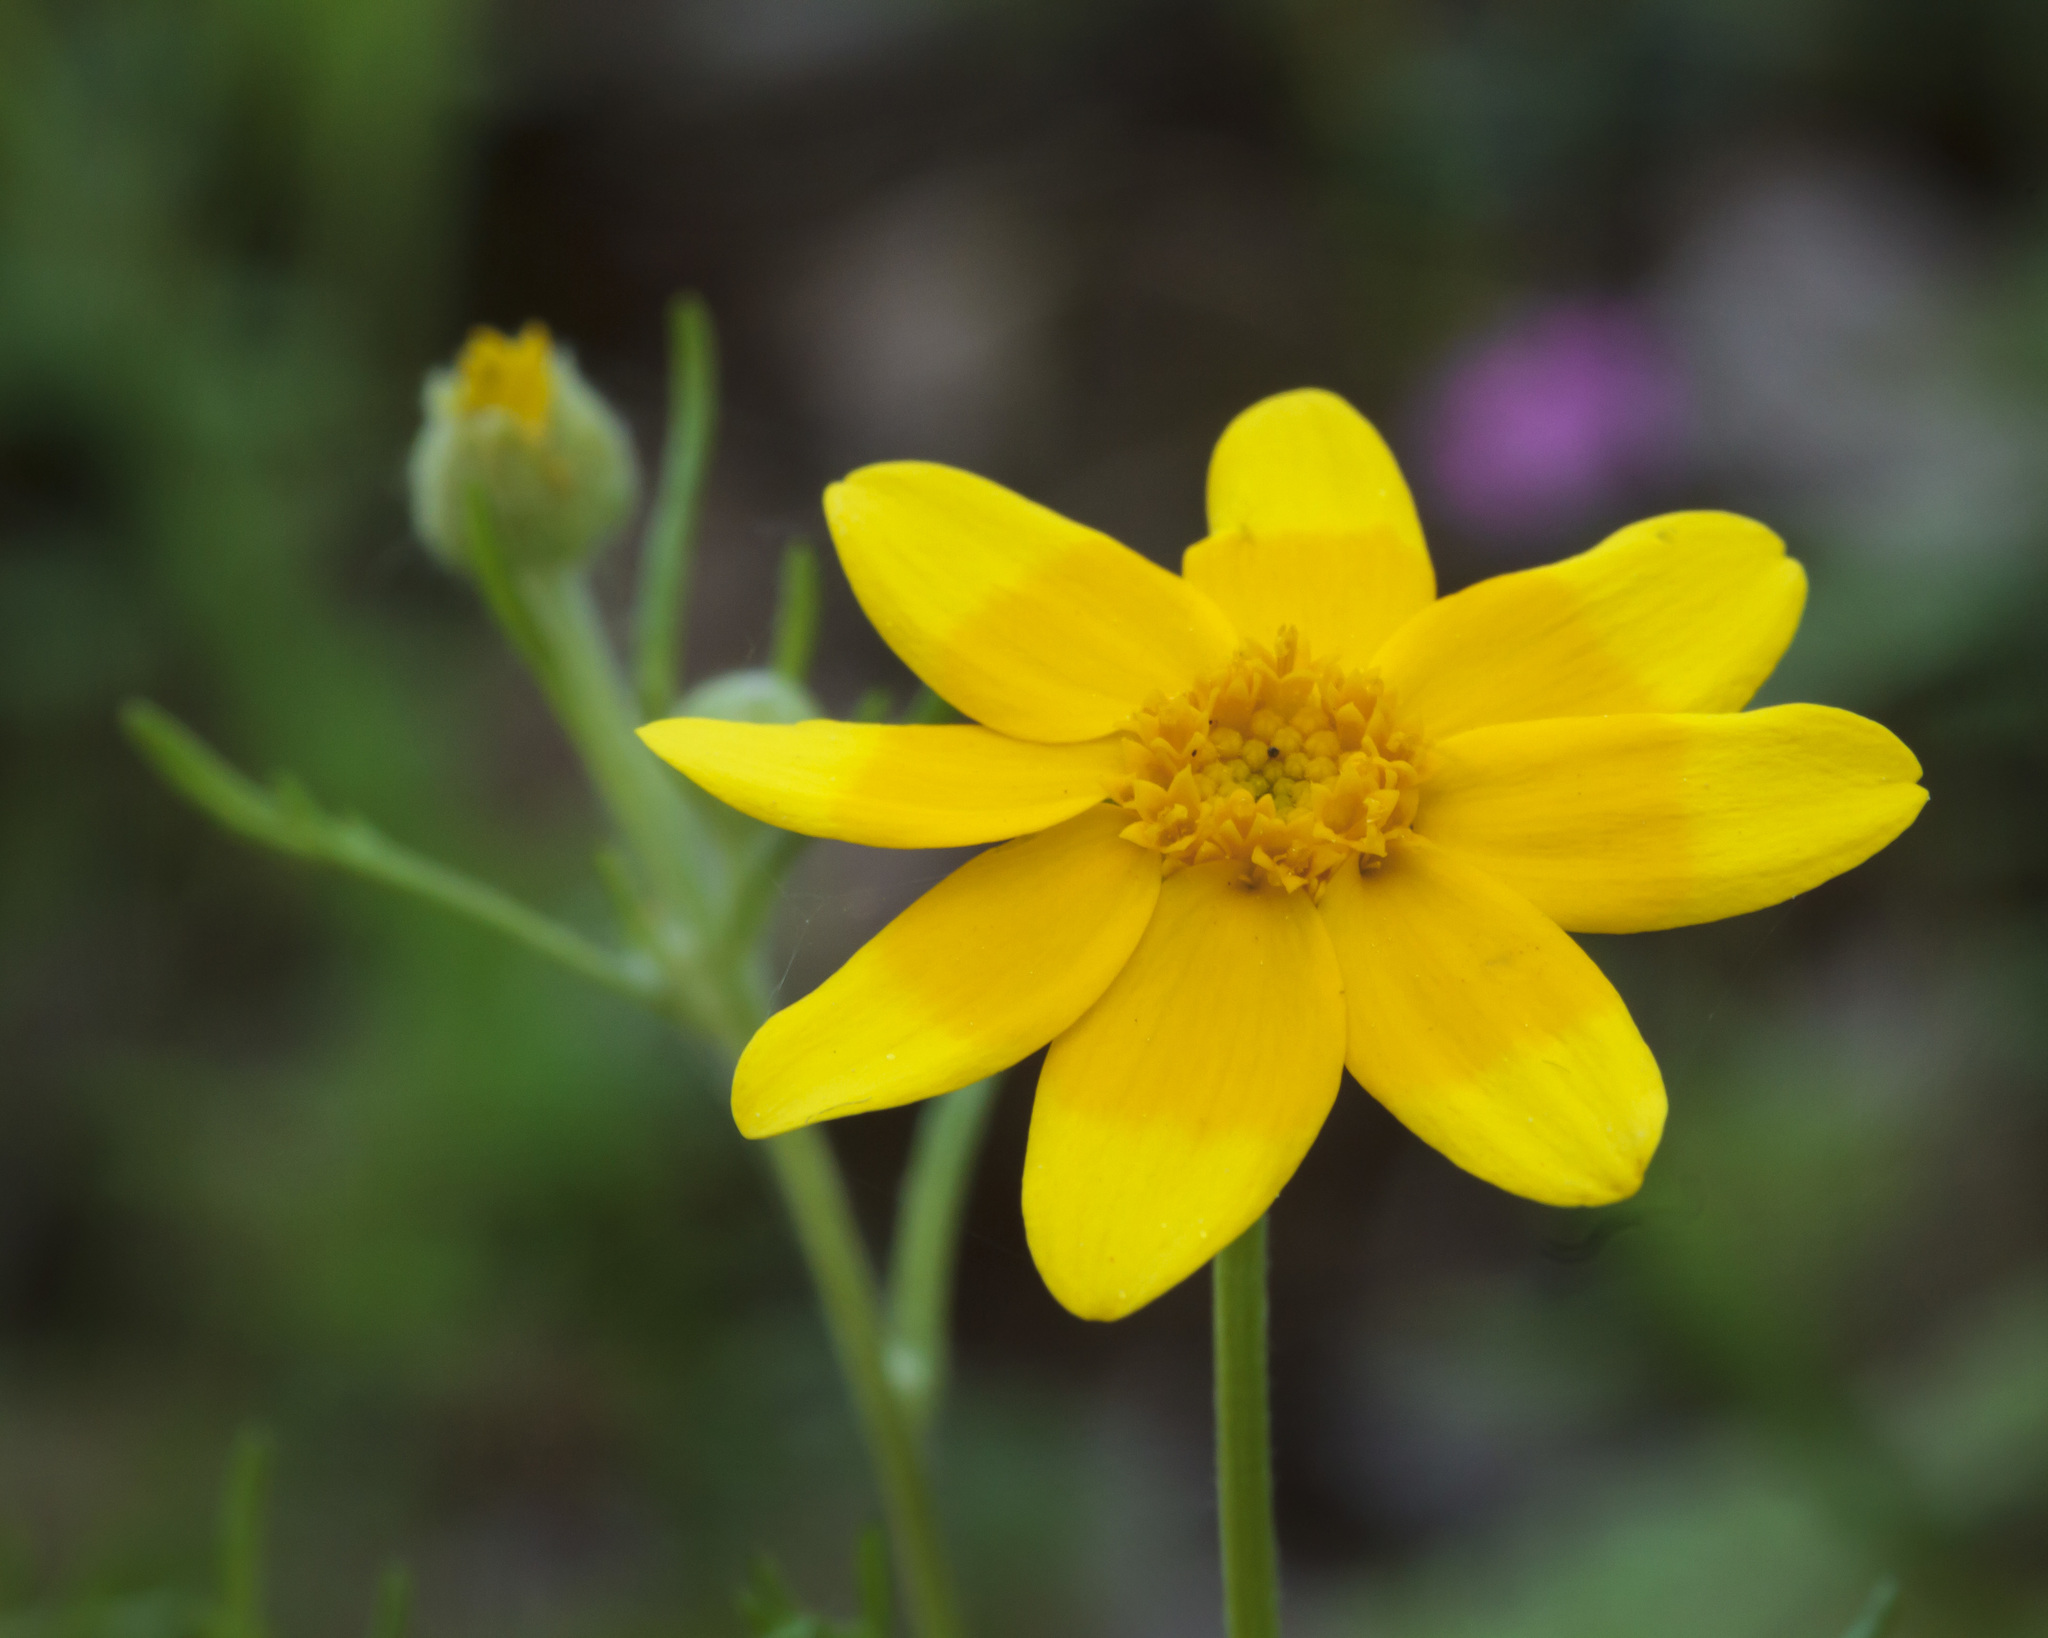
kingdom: Plantae
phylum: Tracheophyta
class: Magnoliopsida
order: Asterales
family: Asteraceae
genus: Pseudobahia
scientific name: Pseudobahia heermannii
